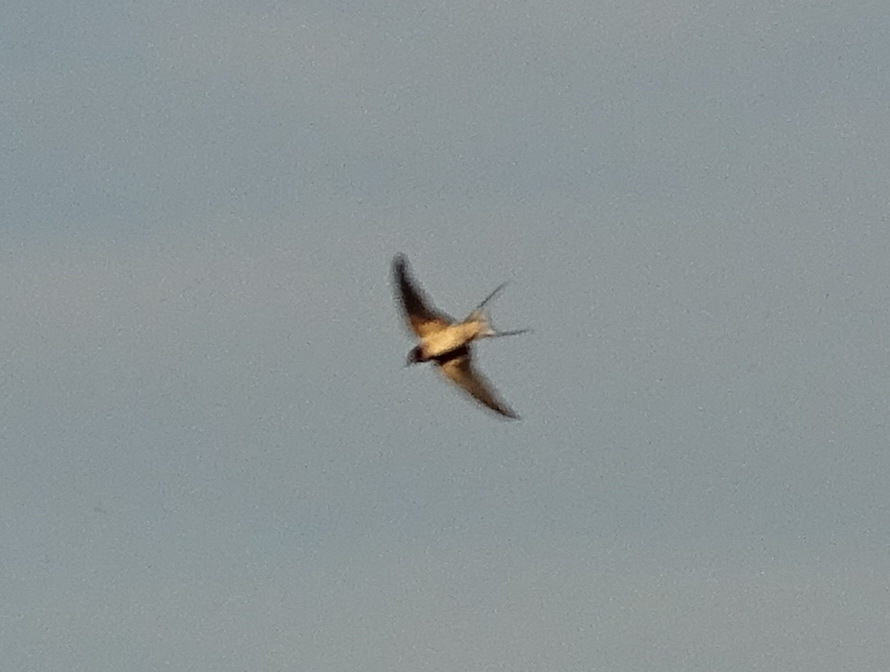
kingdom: Animalia
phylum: Chordata
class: Aves
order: Passeriformes
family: Hirundinidae
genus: Hirundo
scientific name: Hirundo rustica
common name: Barn swallow
